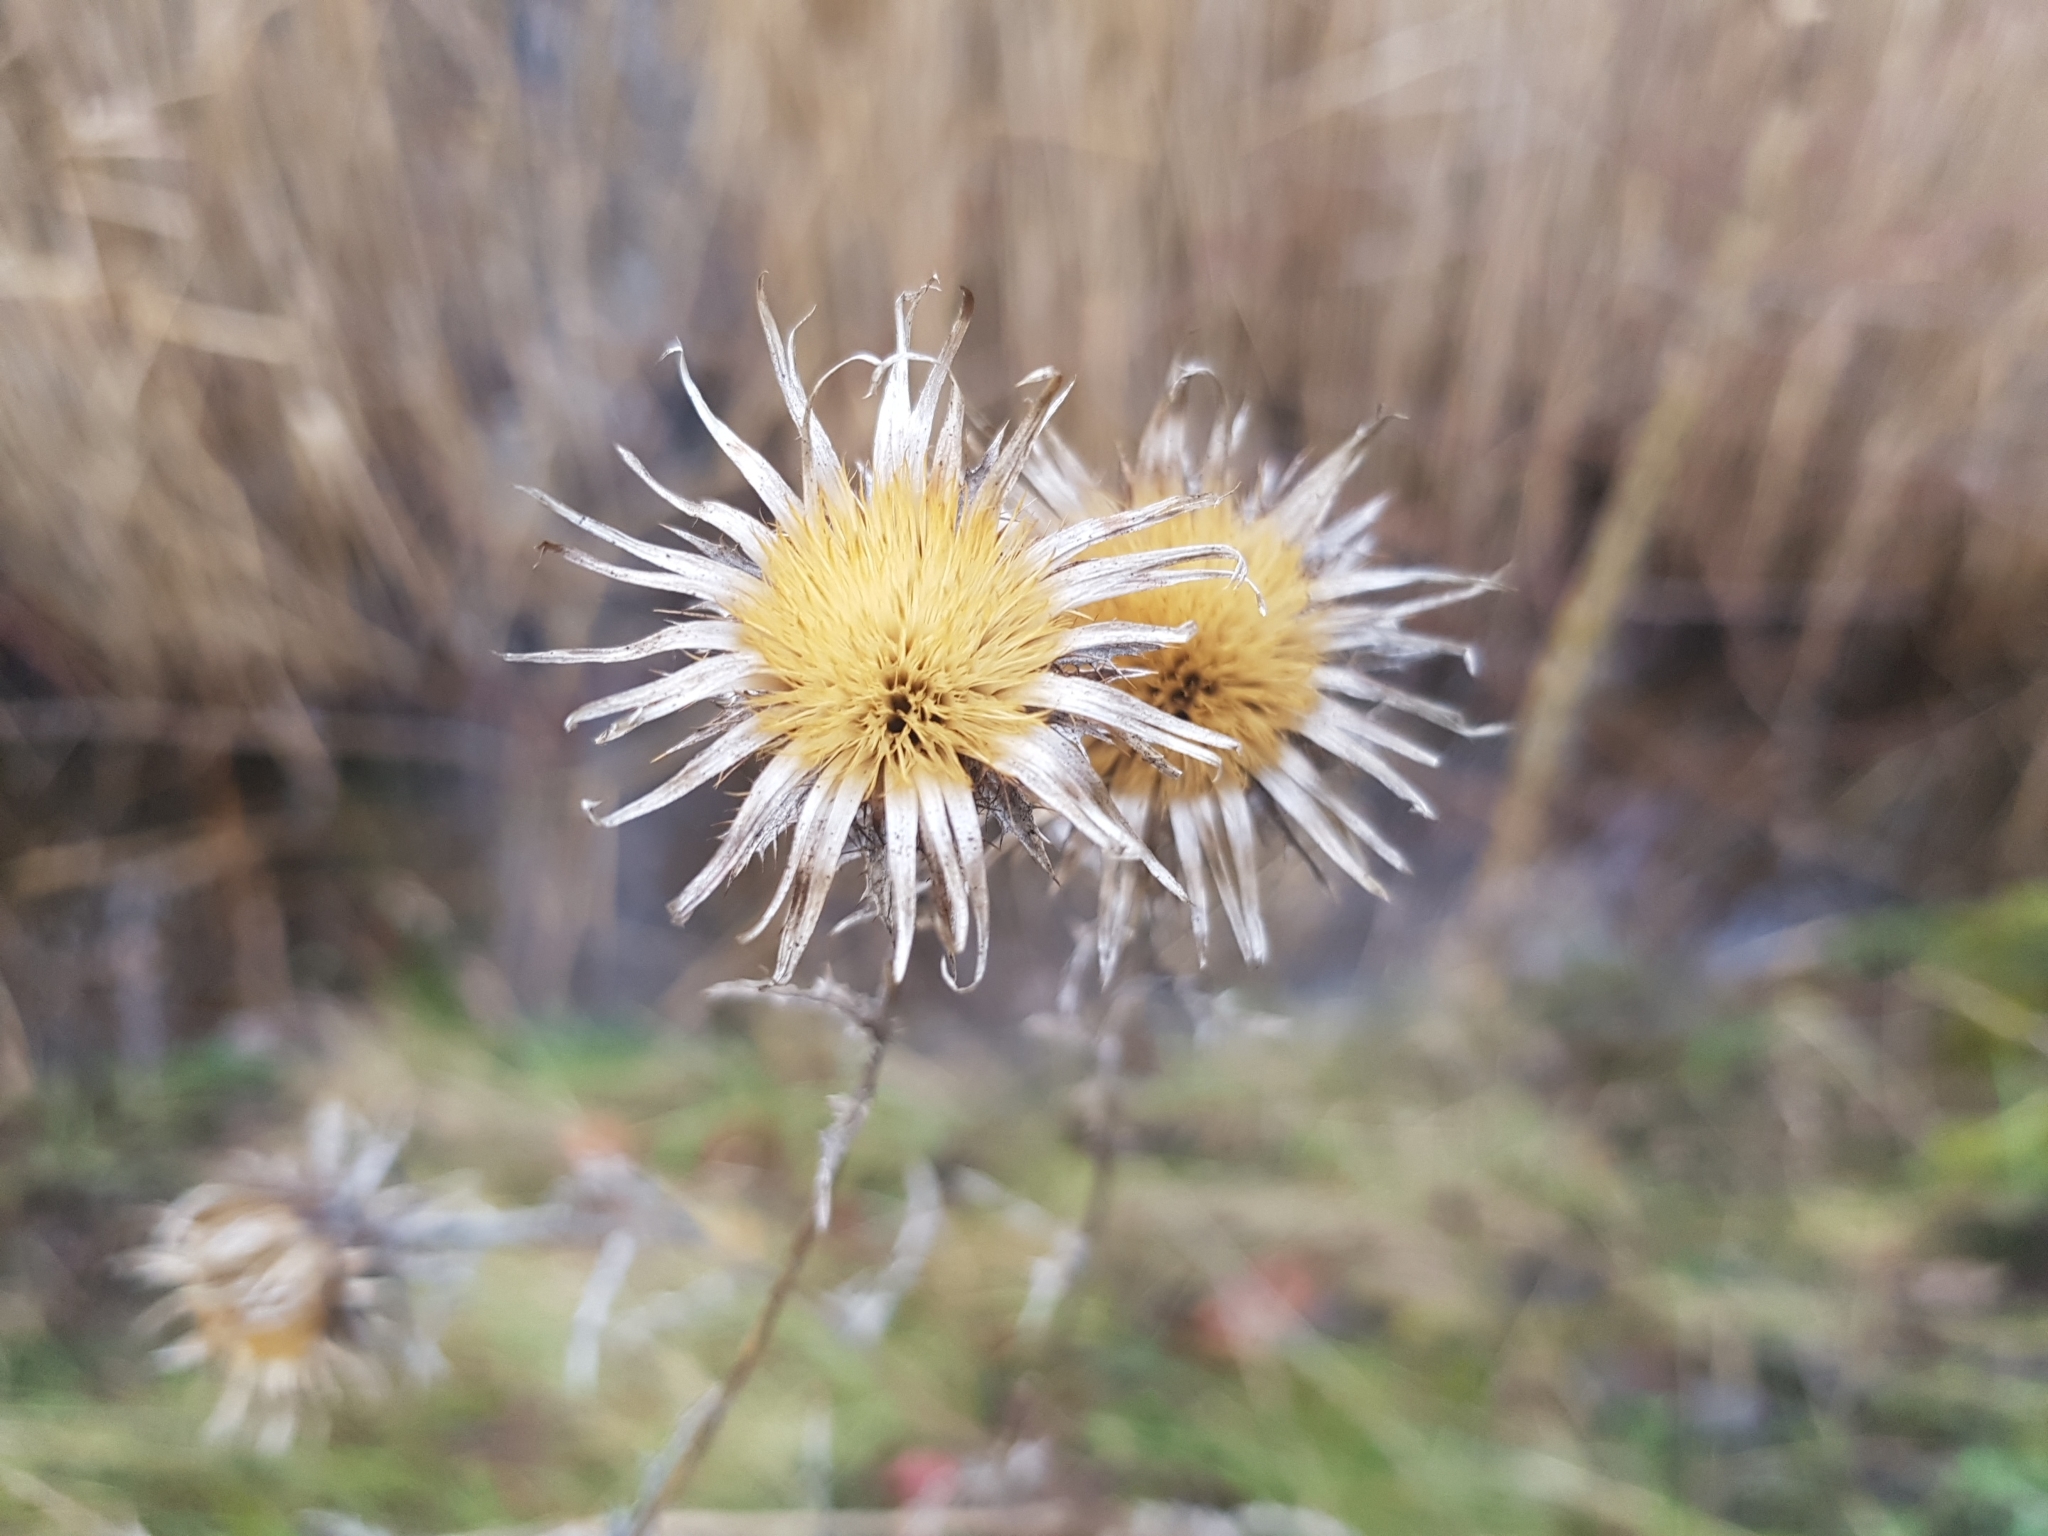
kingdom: Plantae
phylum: Tracheophyta
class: Magnoliopsida
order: Asterales
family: Asteraceae
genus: Carlina
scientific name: Carlina vulgaris
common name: Carline thistle
